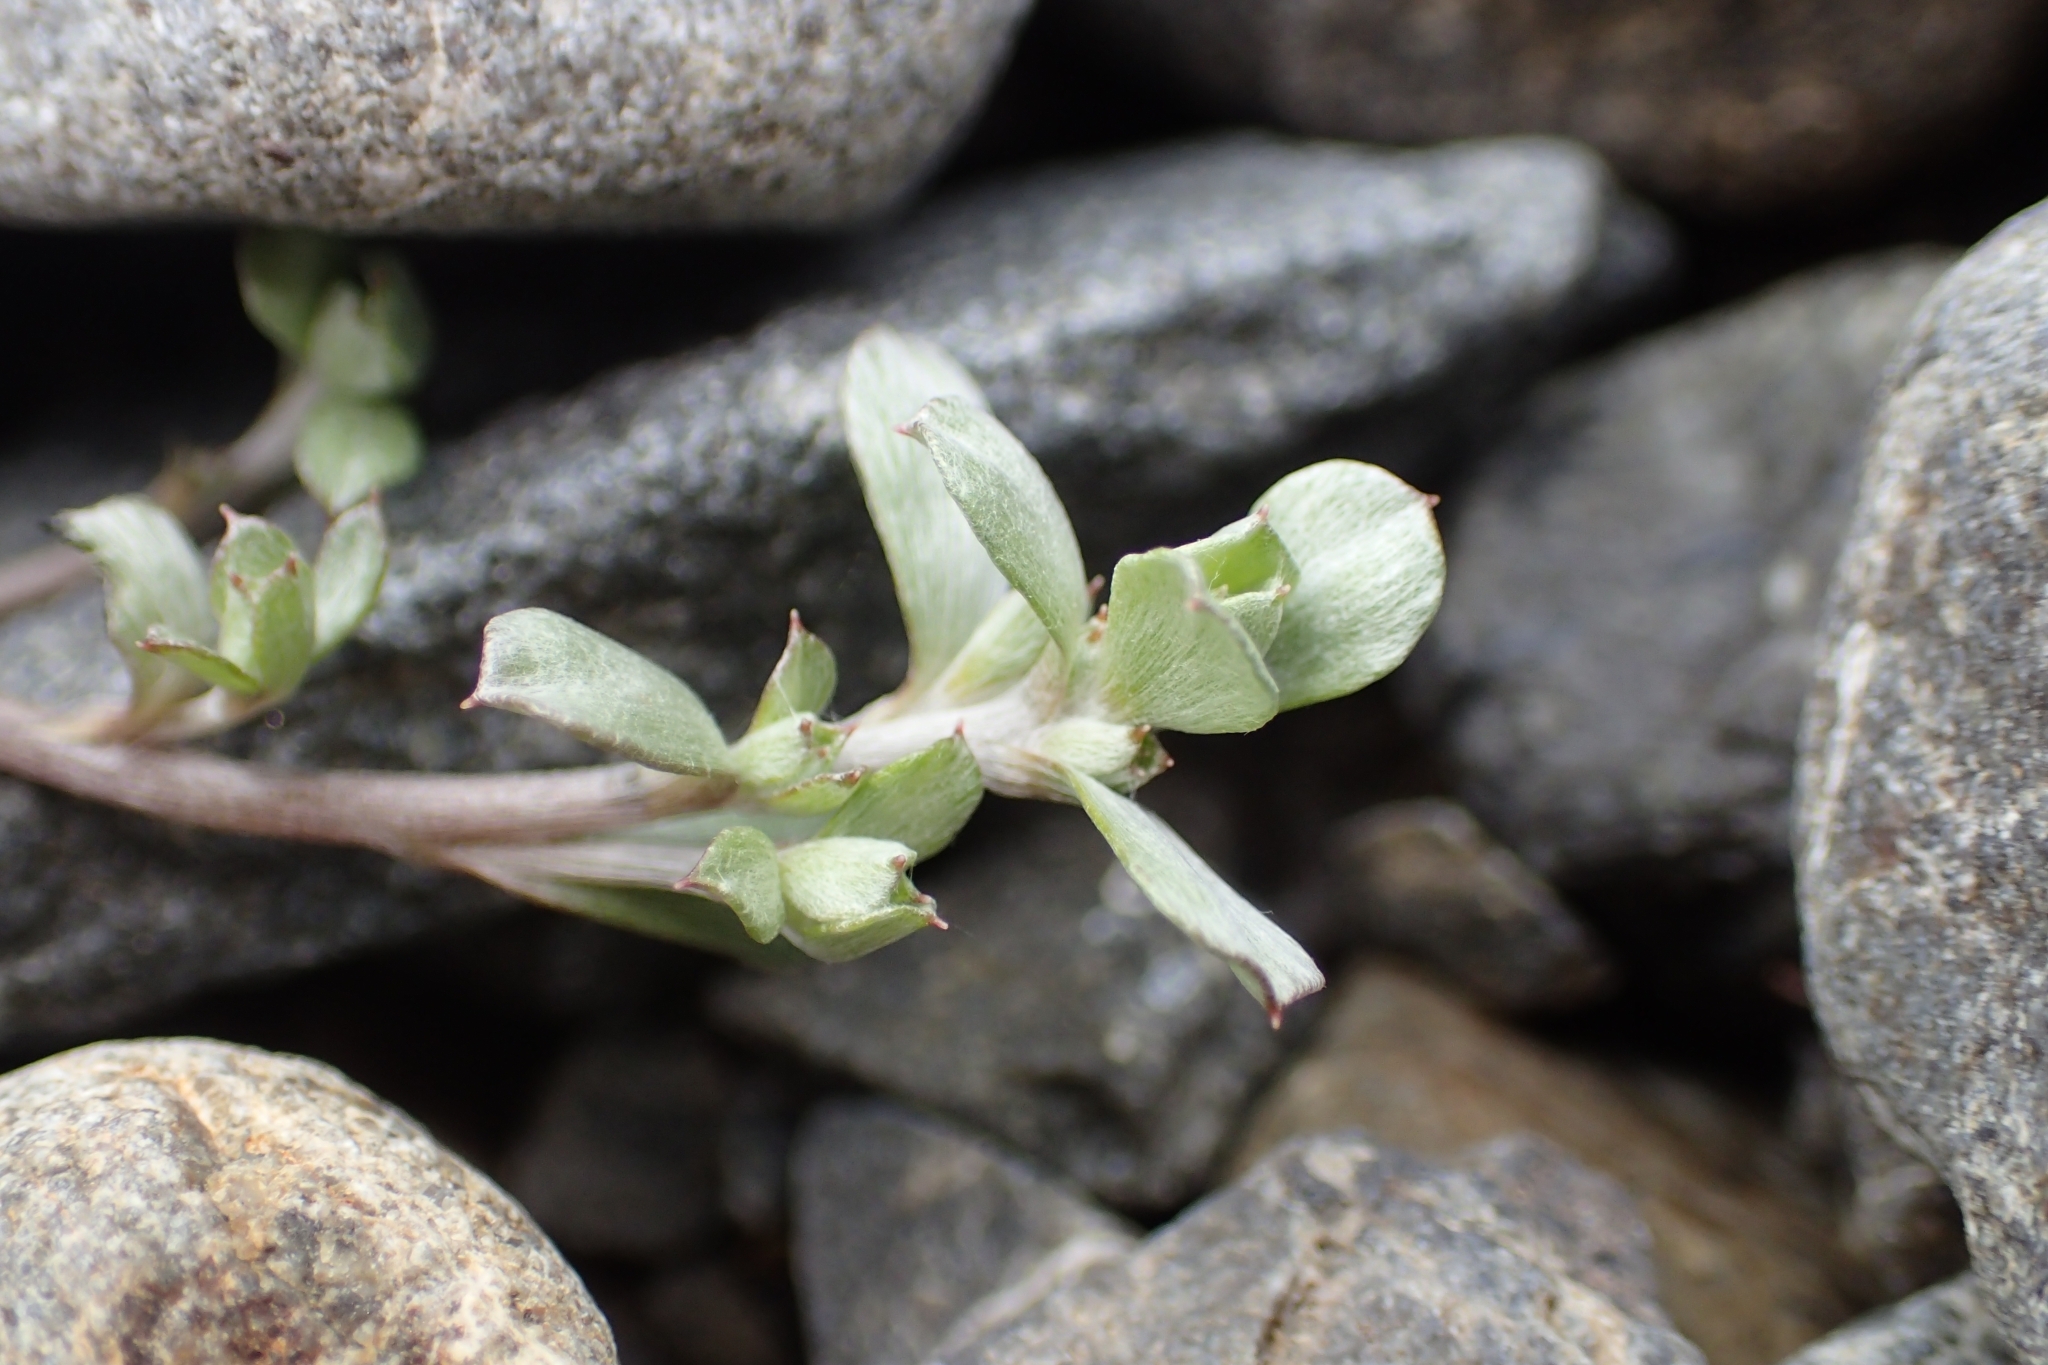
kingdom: Plantae
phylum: Tracheophyta
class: Magnoliopsida
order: Asterales
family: Asteraceae
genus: Anaphalioides
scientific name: Anaphalioides bellidioides
